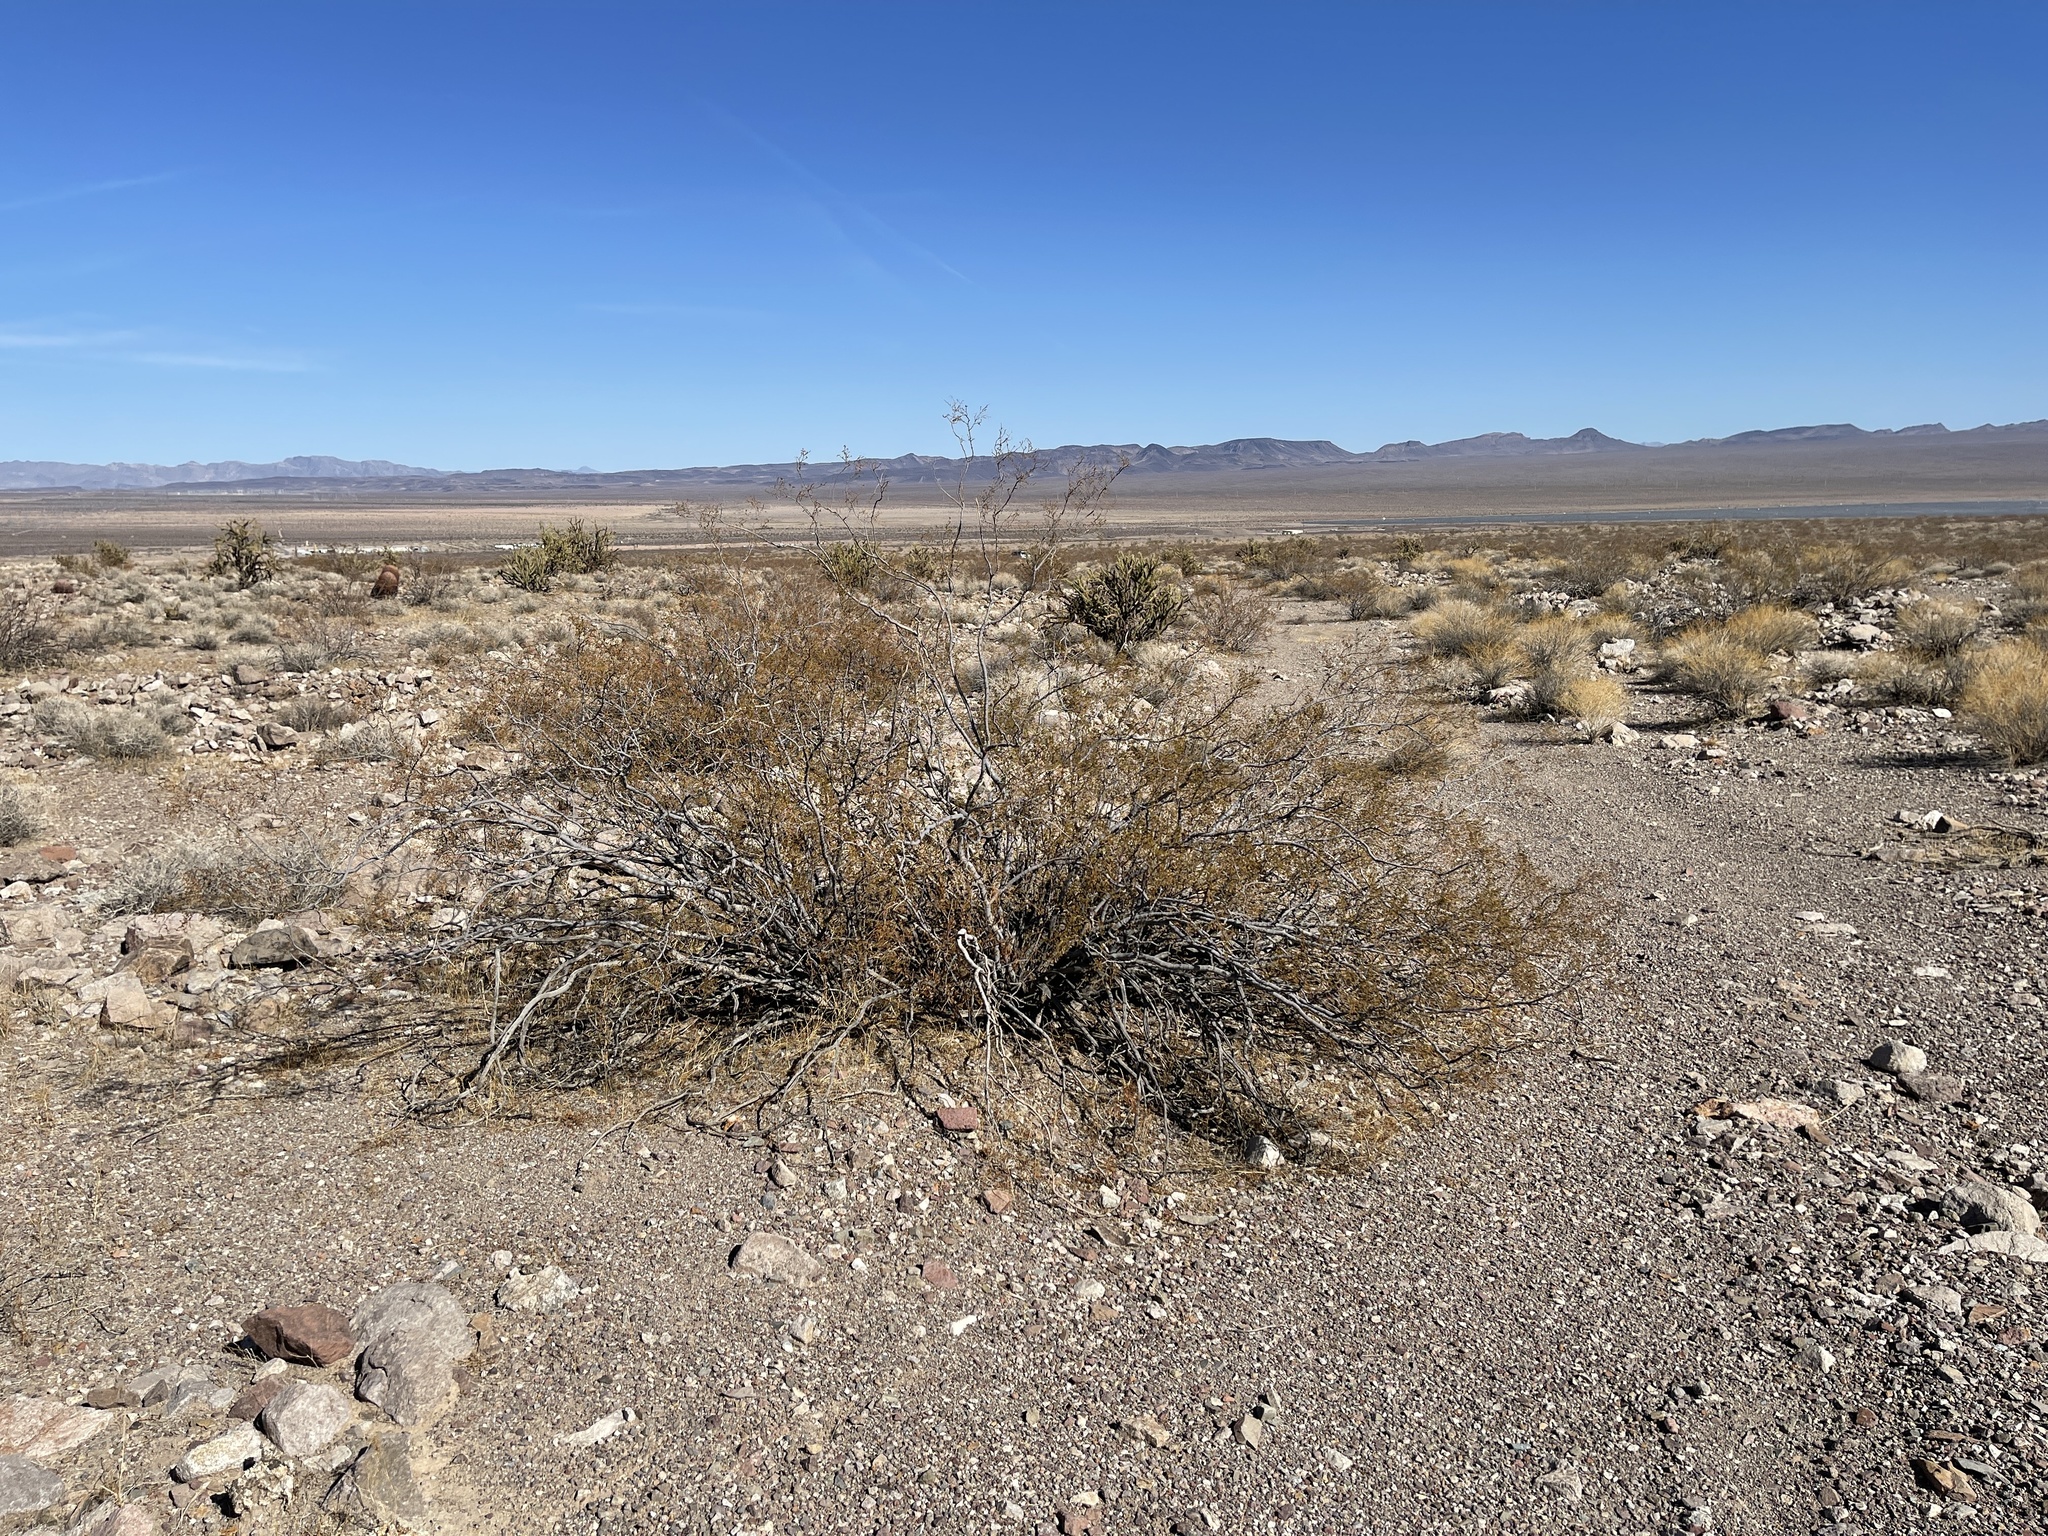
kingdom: Plantae
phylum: Tracheophyta
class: Magnoliopsida
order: Zygophyllales
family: Zygophyllaceae
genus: Larrea
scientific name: Larrea tridentata
